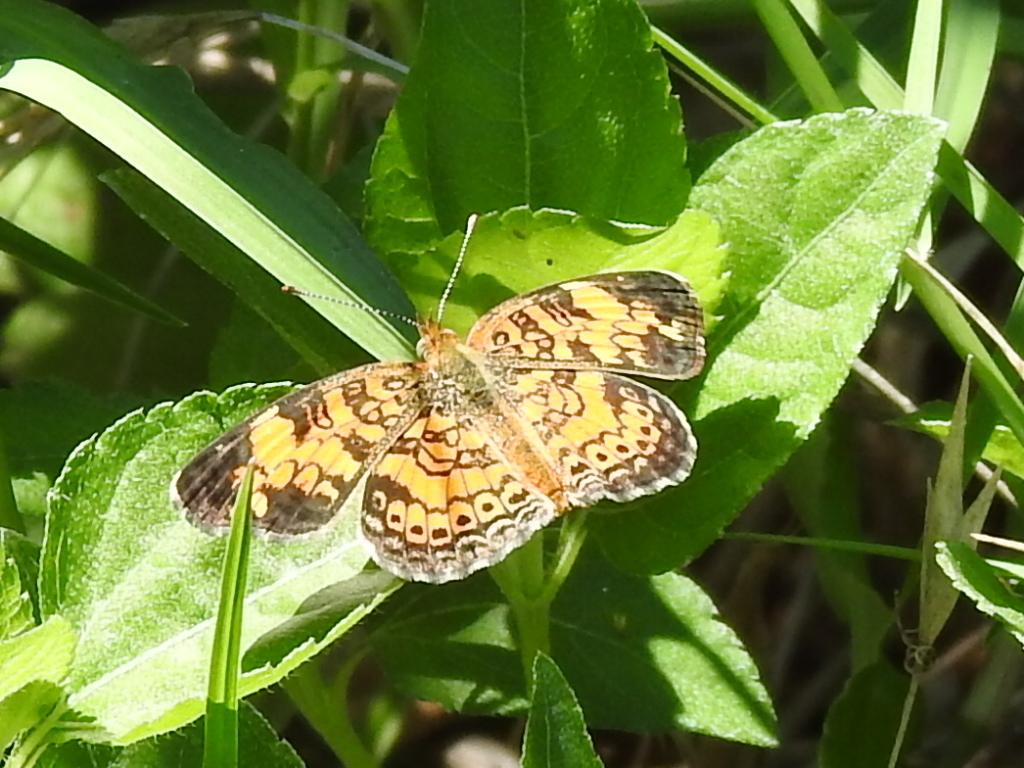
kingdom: Animalia
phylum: Arthropoda
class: Insecta
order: Lepidoptera
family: Nymphalidae
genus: Phyciodes
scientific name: Phyciodes tharos
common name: Pearl crescent
